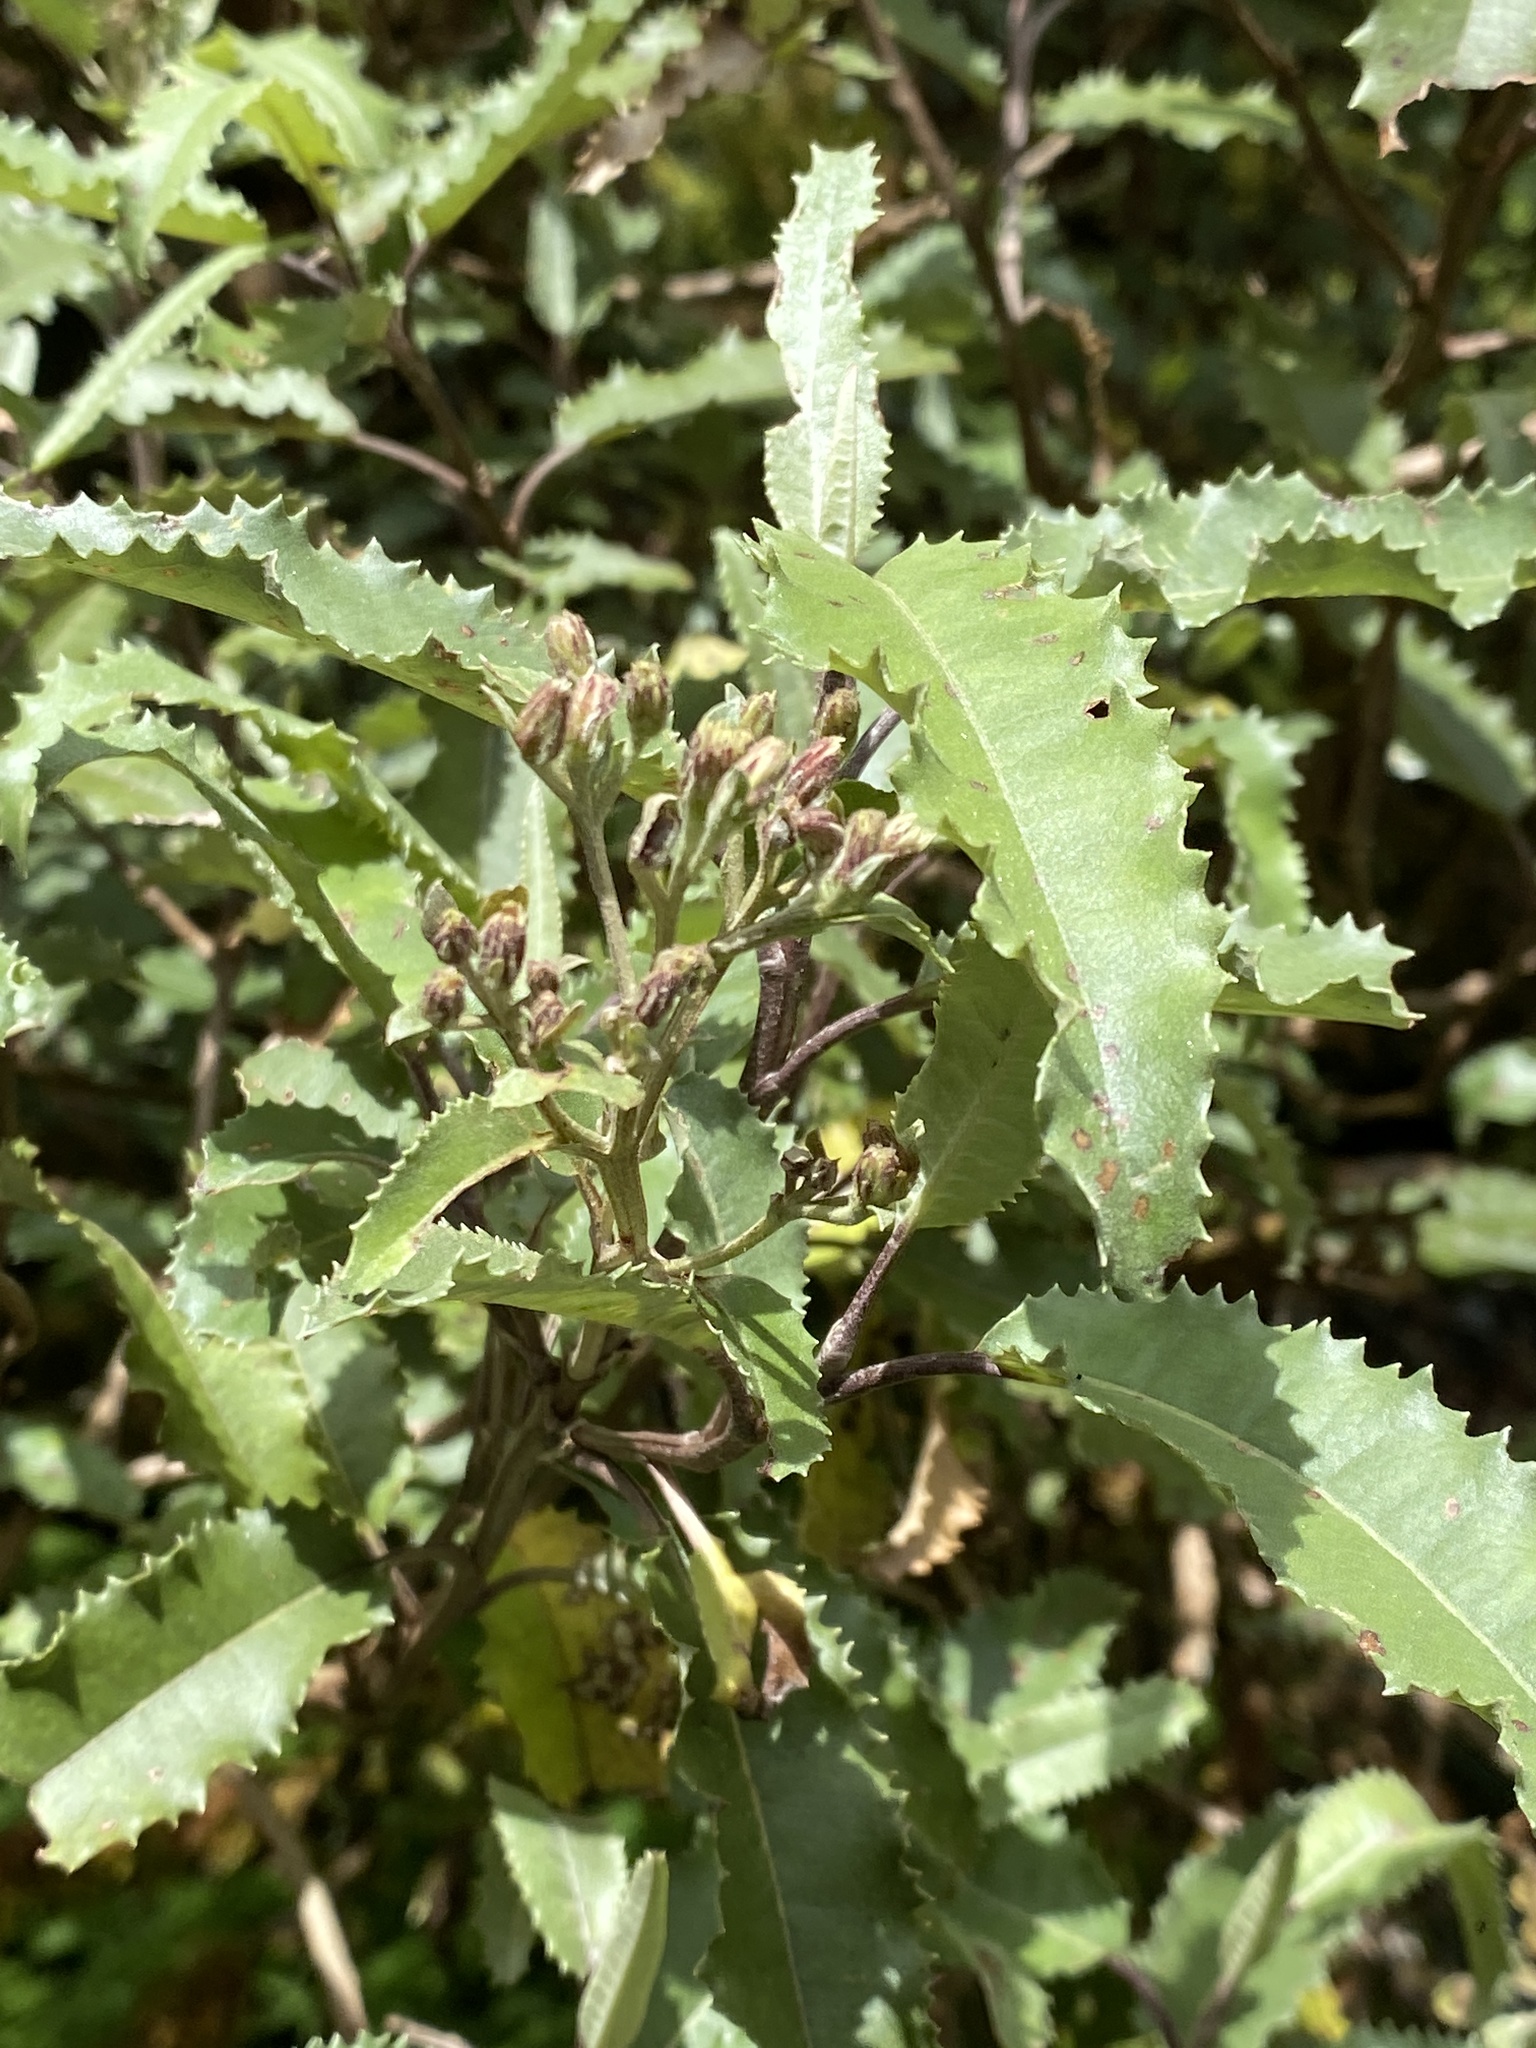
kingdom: Plantae
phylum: Tracheophyta
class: Magnoliopsida
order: Asterales
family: Asteraceae
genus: Olearia
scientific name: Olearia ilicifolia
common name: Maori-holly
